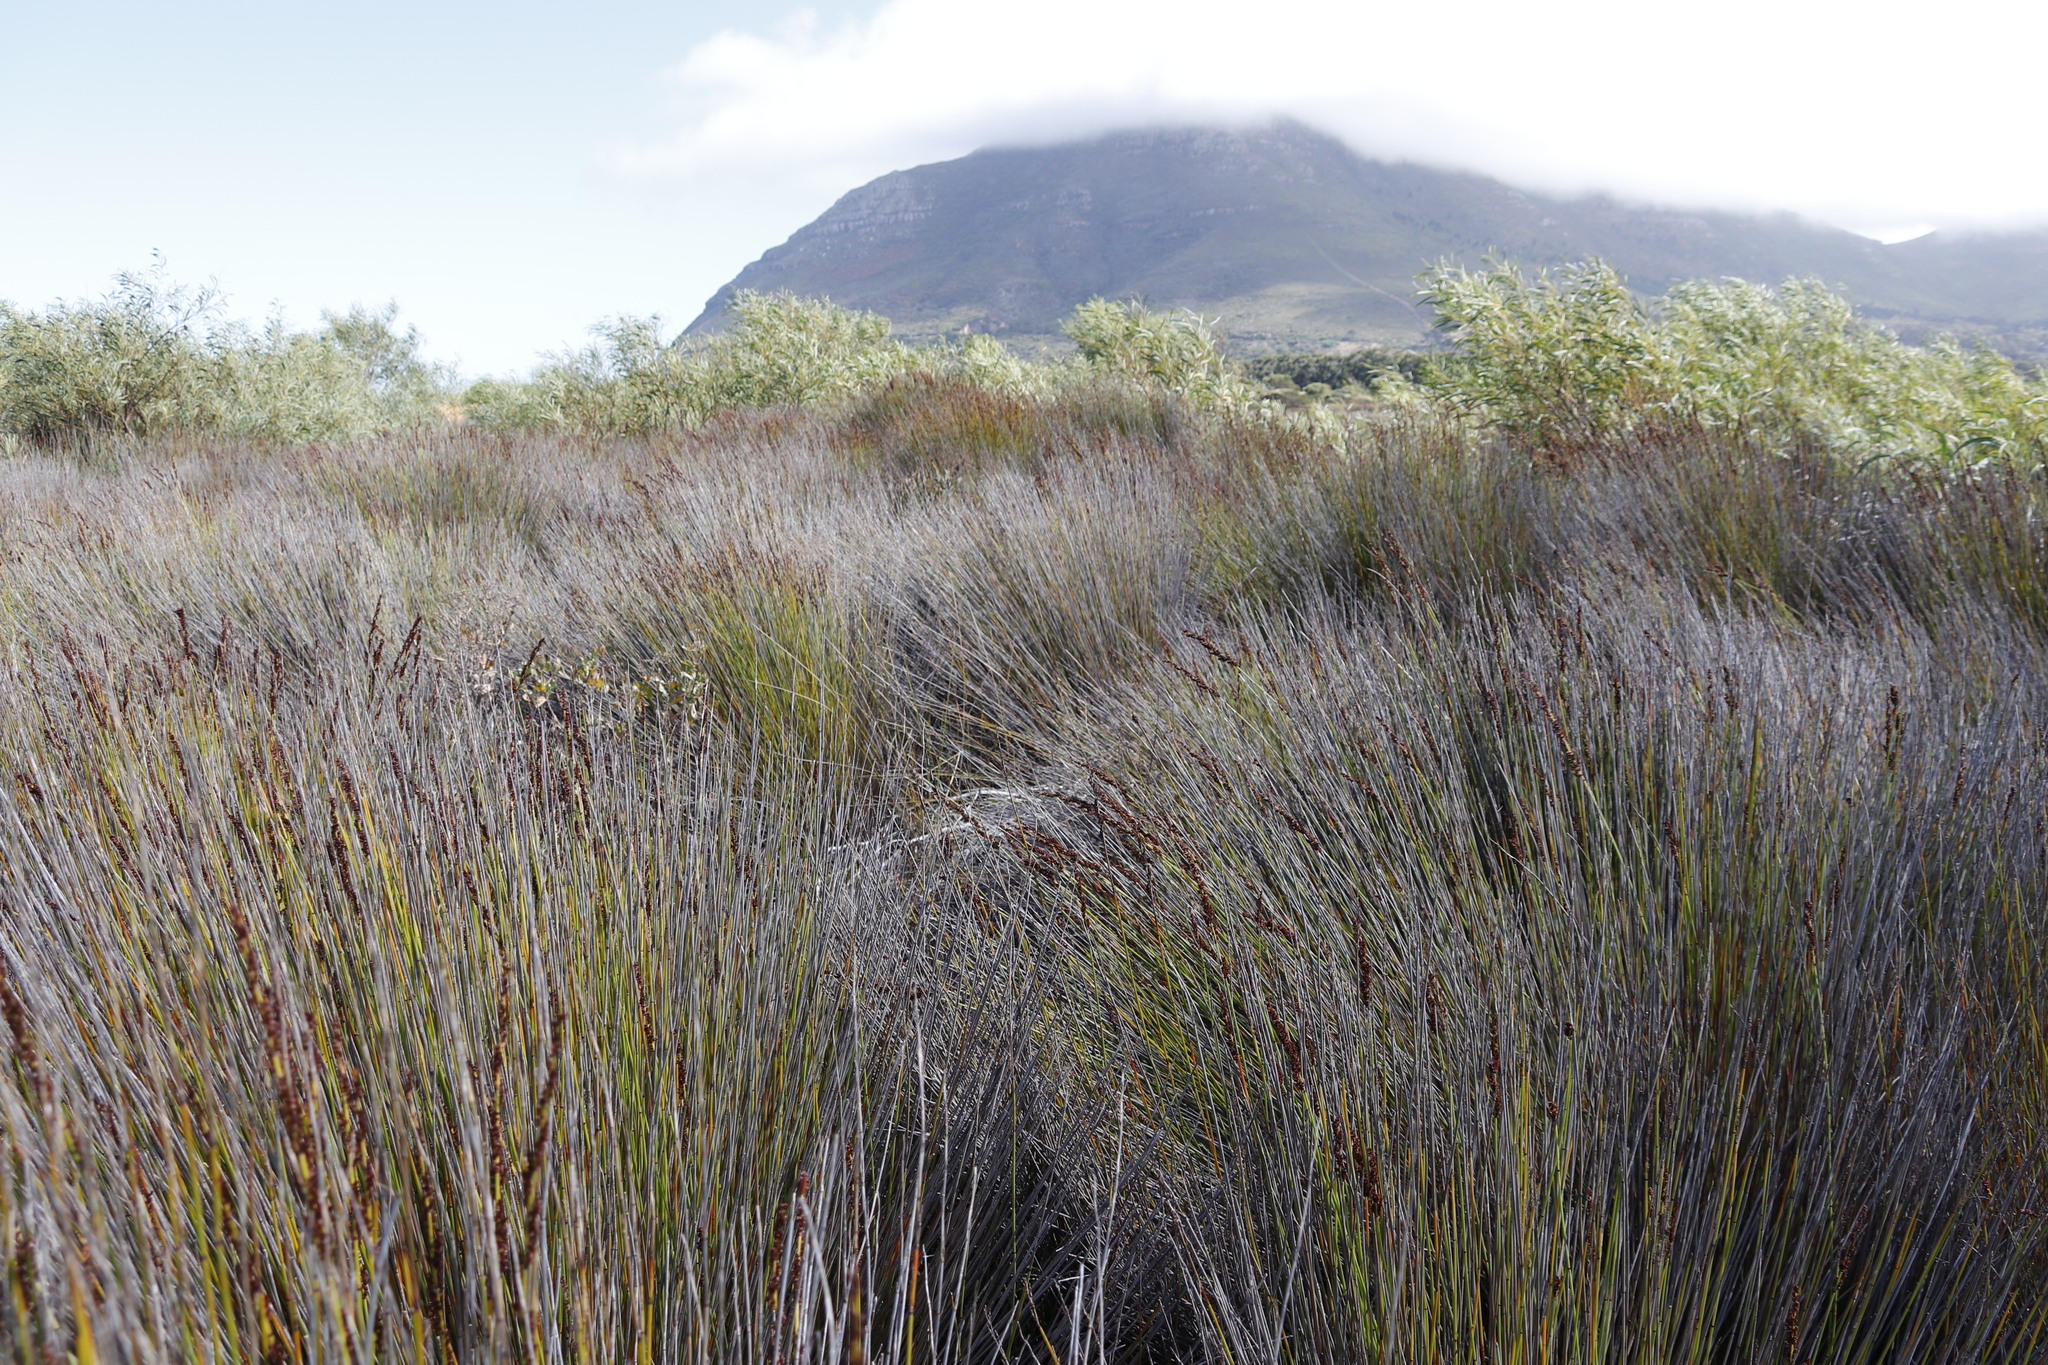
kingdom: Plantae
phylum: Tracheophyta
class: Liliopsida
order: Poales
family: Restionaceae
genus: Elegia
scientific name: Elegia tectorum
